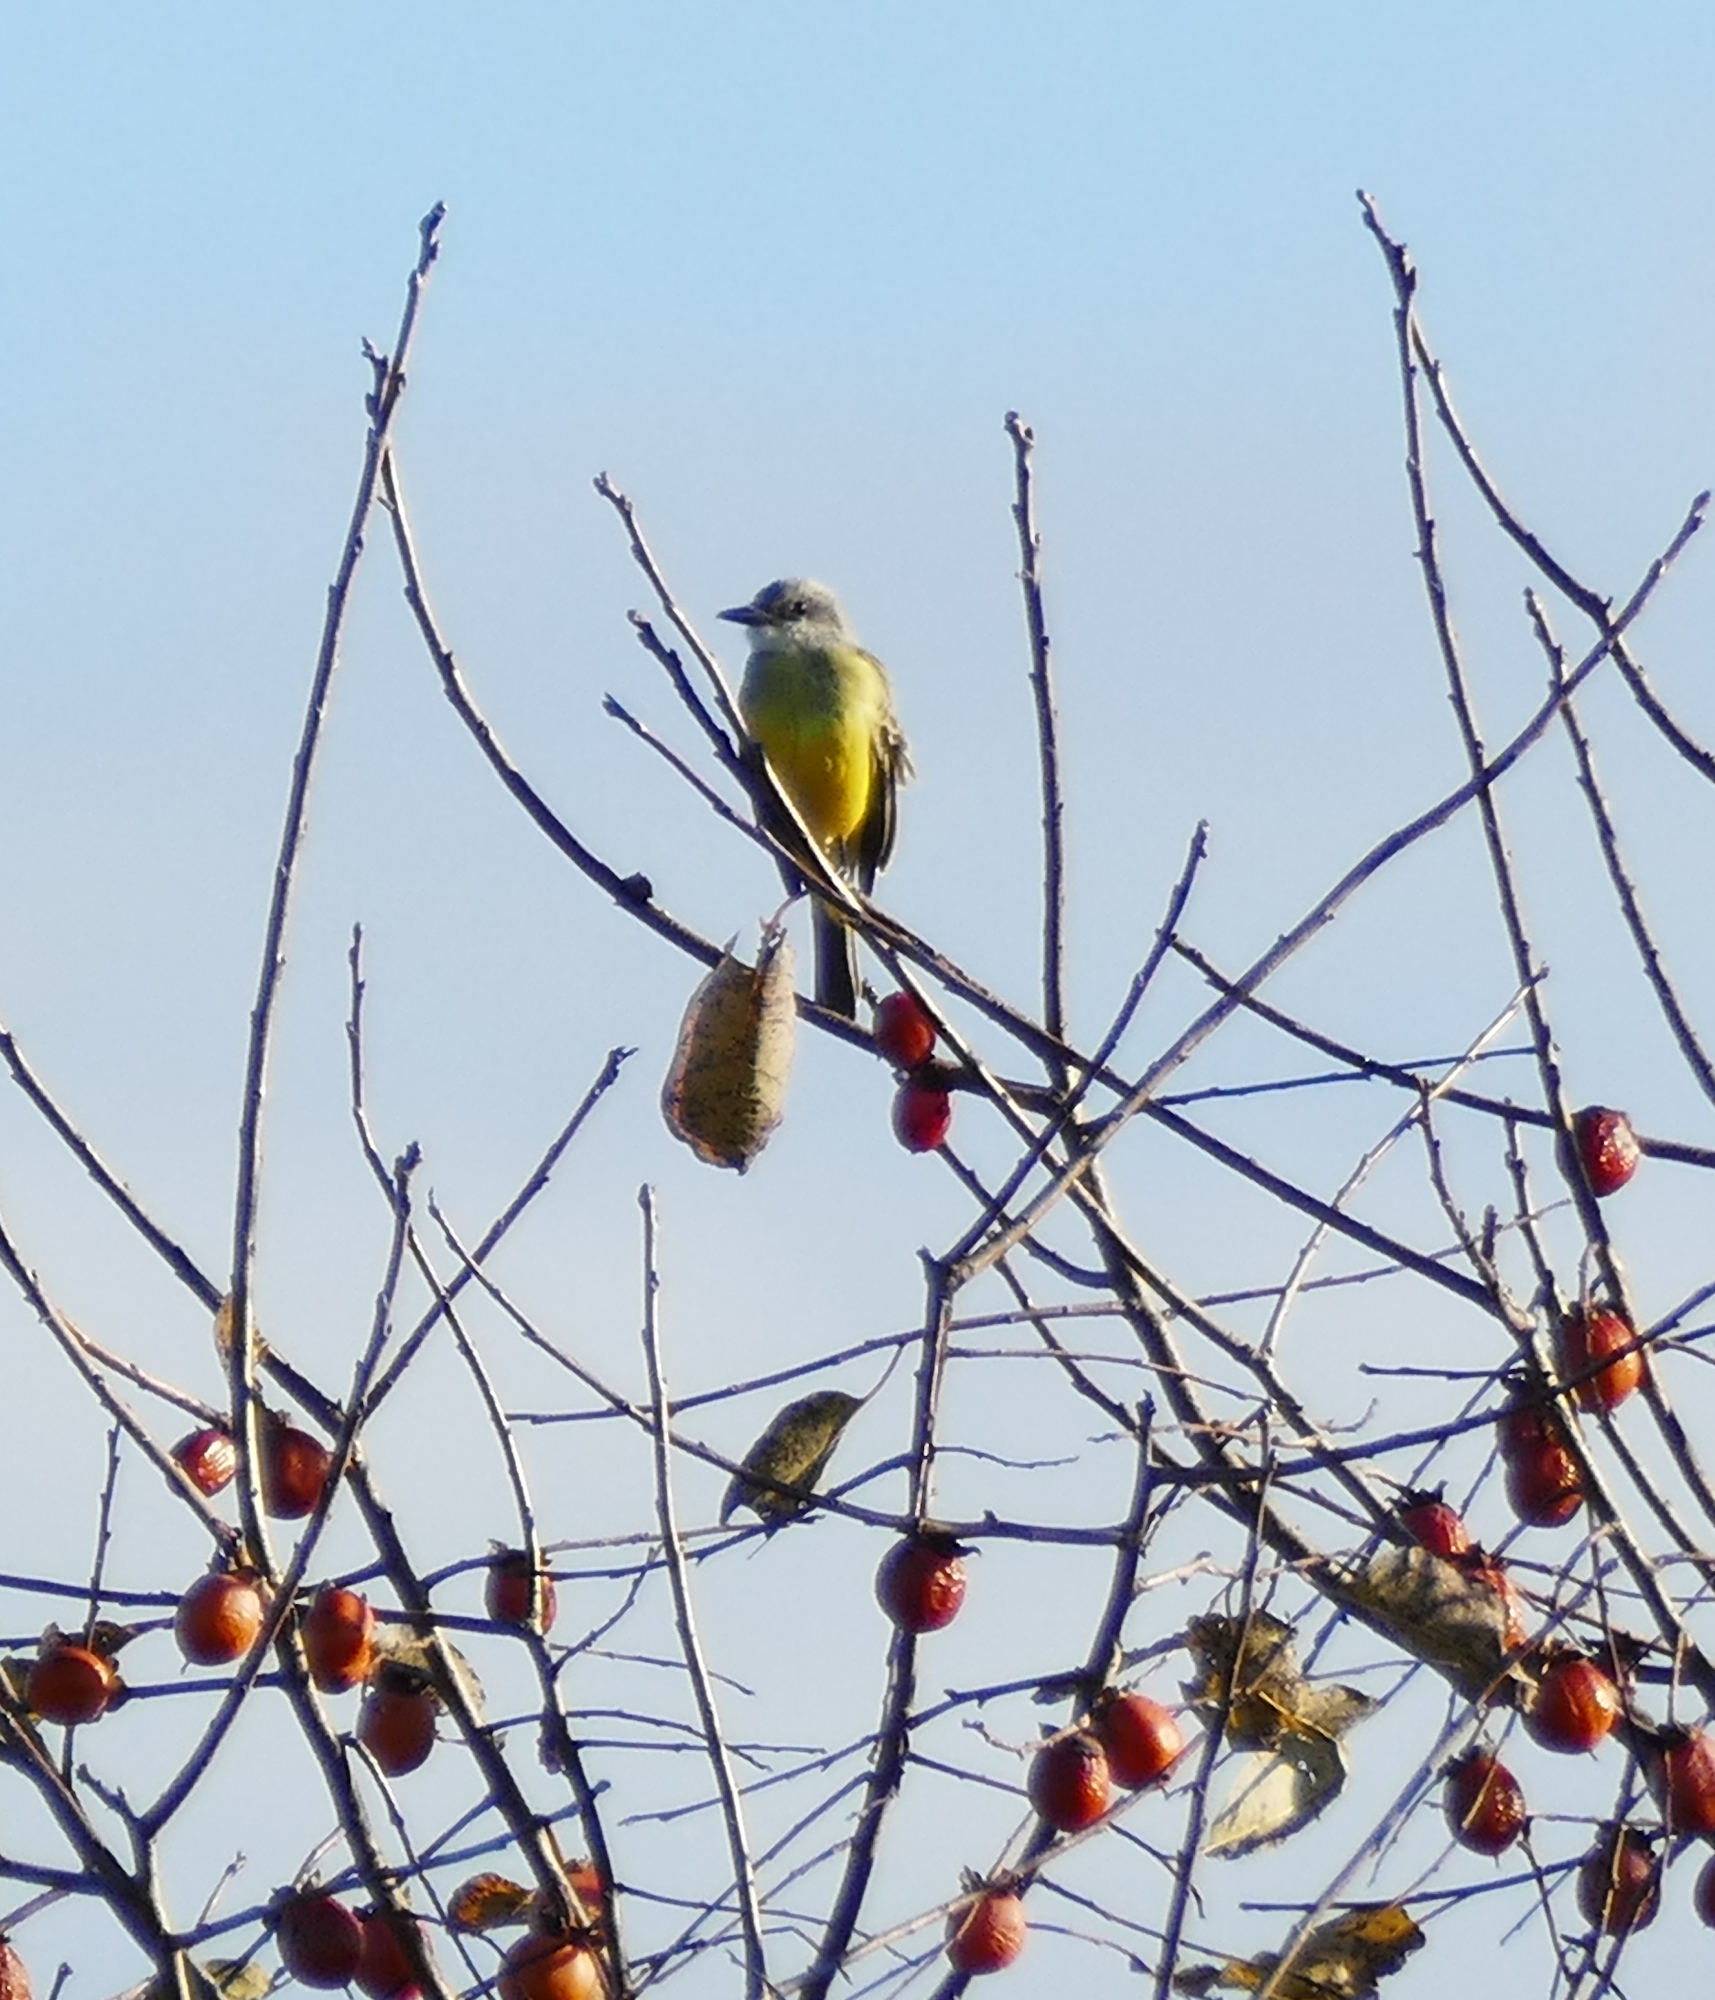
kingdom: Animalia
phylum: Chordata
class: Aves
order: Passeriformes
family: Tyrannidae
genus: Tyrannus
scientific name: Tyrannus melancholicus
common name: Tropical kingbird
